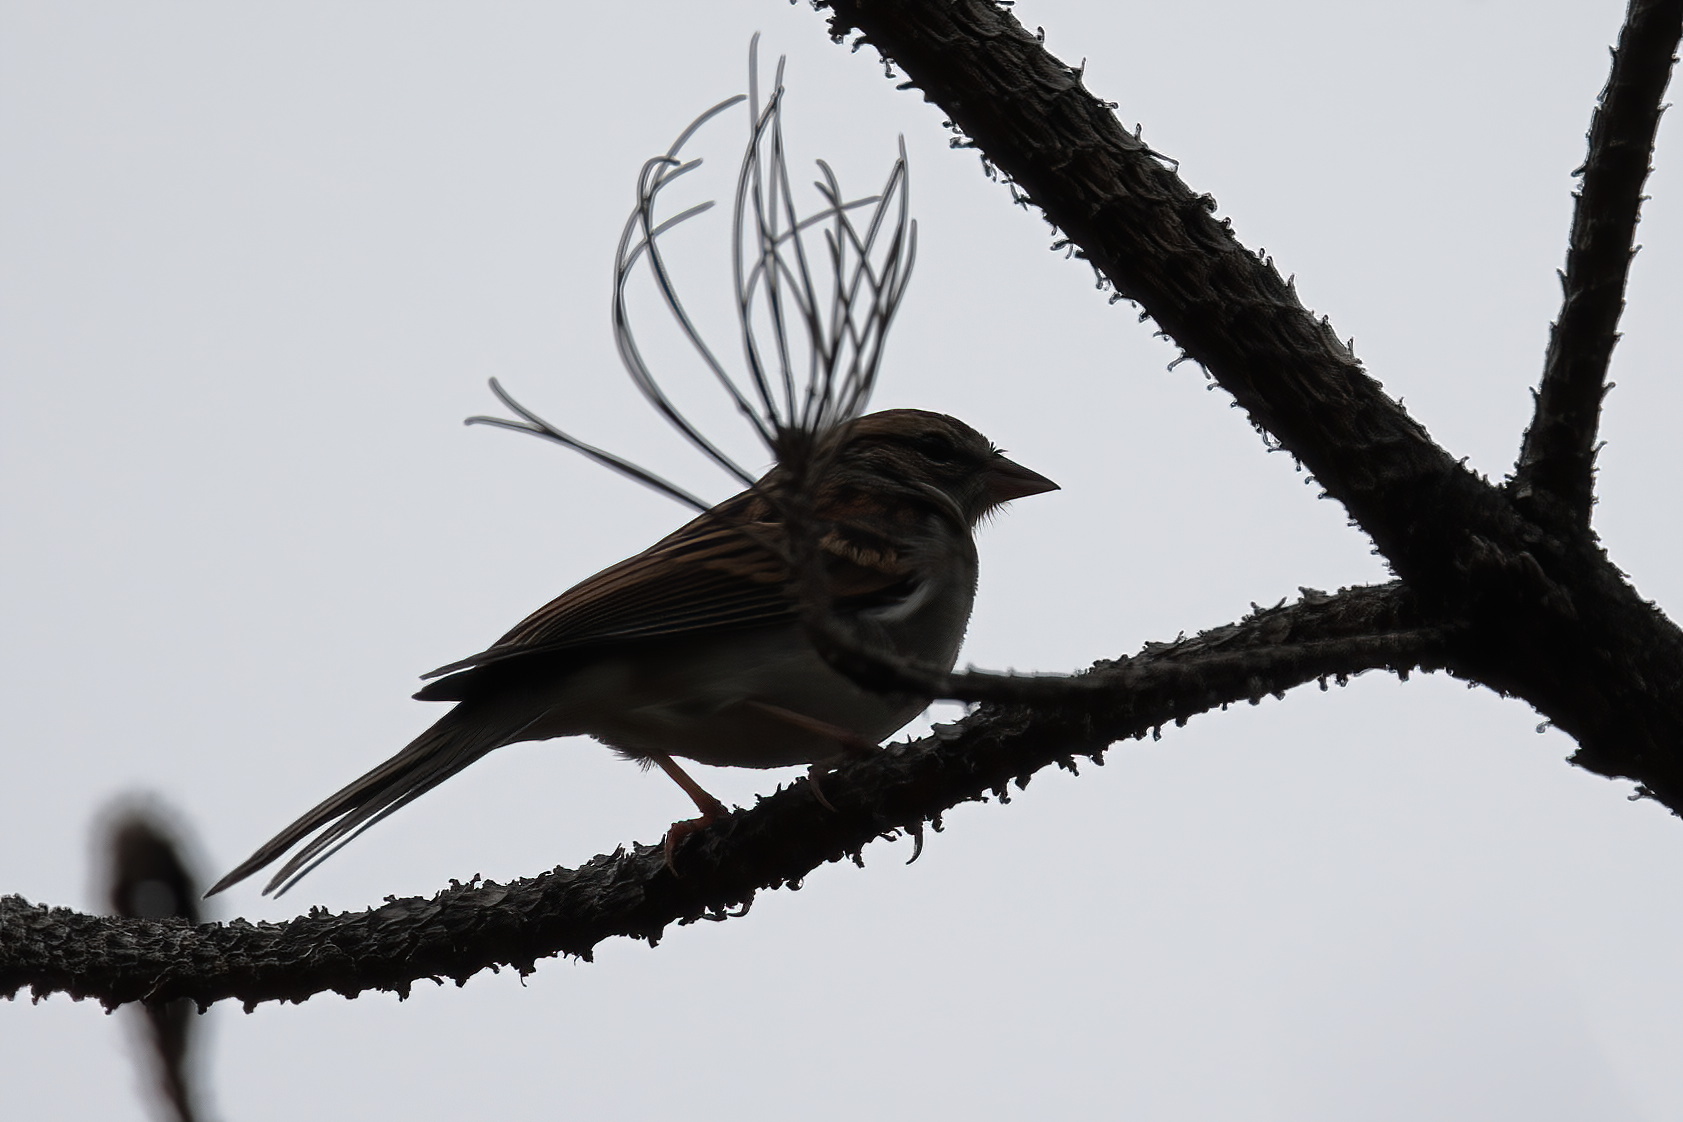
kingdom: Animalia
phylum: Chordata
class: Aves
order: Passeriformes
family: Passerellidae
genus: Spizella
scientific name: Spizella passerina
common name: Chipping sparrow
